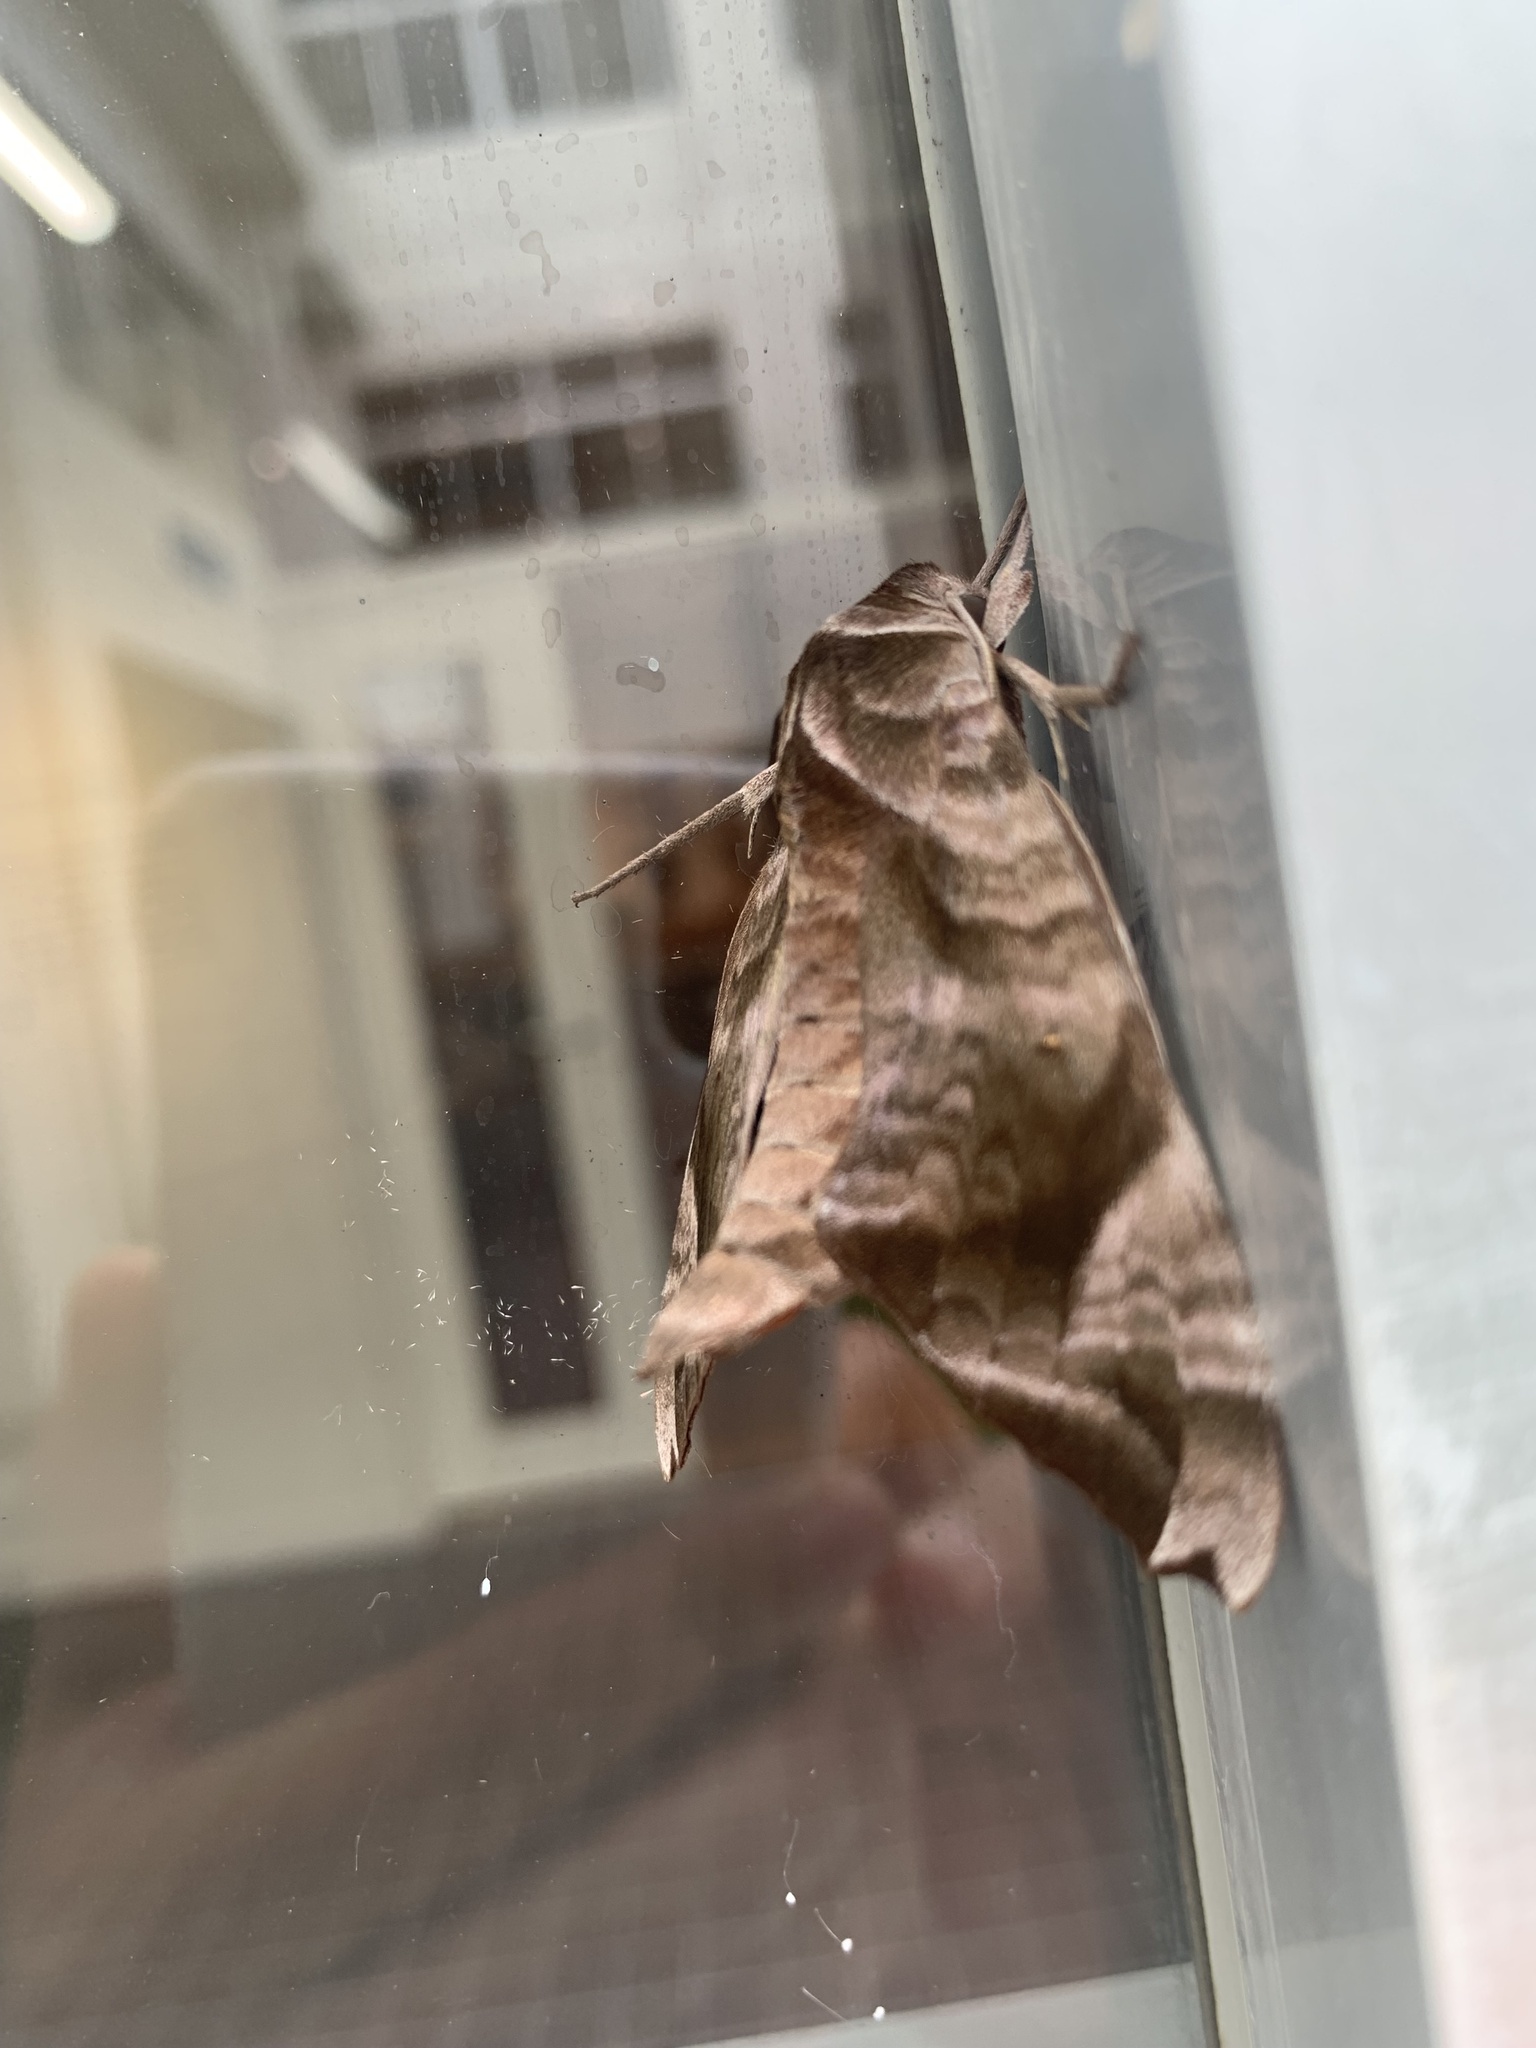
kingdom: Animalia
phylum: Arthropoda
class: Insecta
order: Lepidoptera
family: Sphingidae
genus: Acosmeryx
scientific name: Acosmeryx castanea
